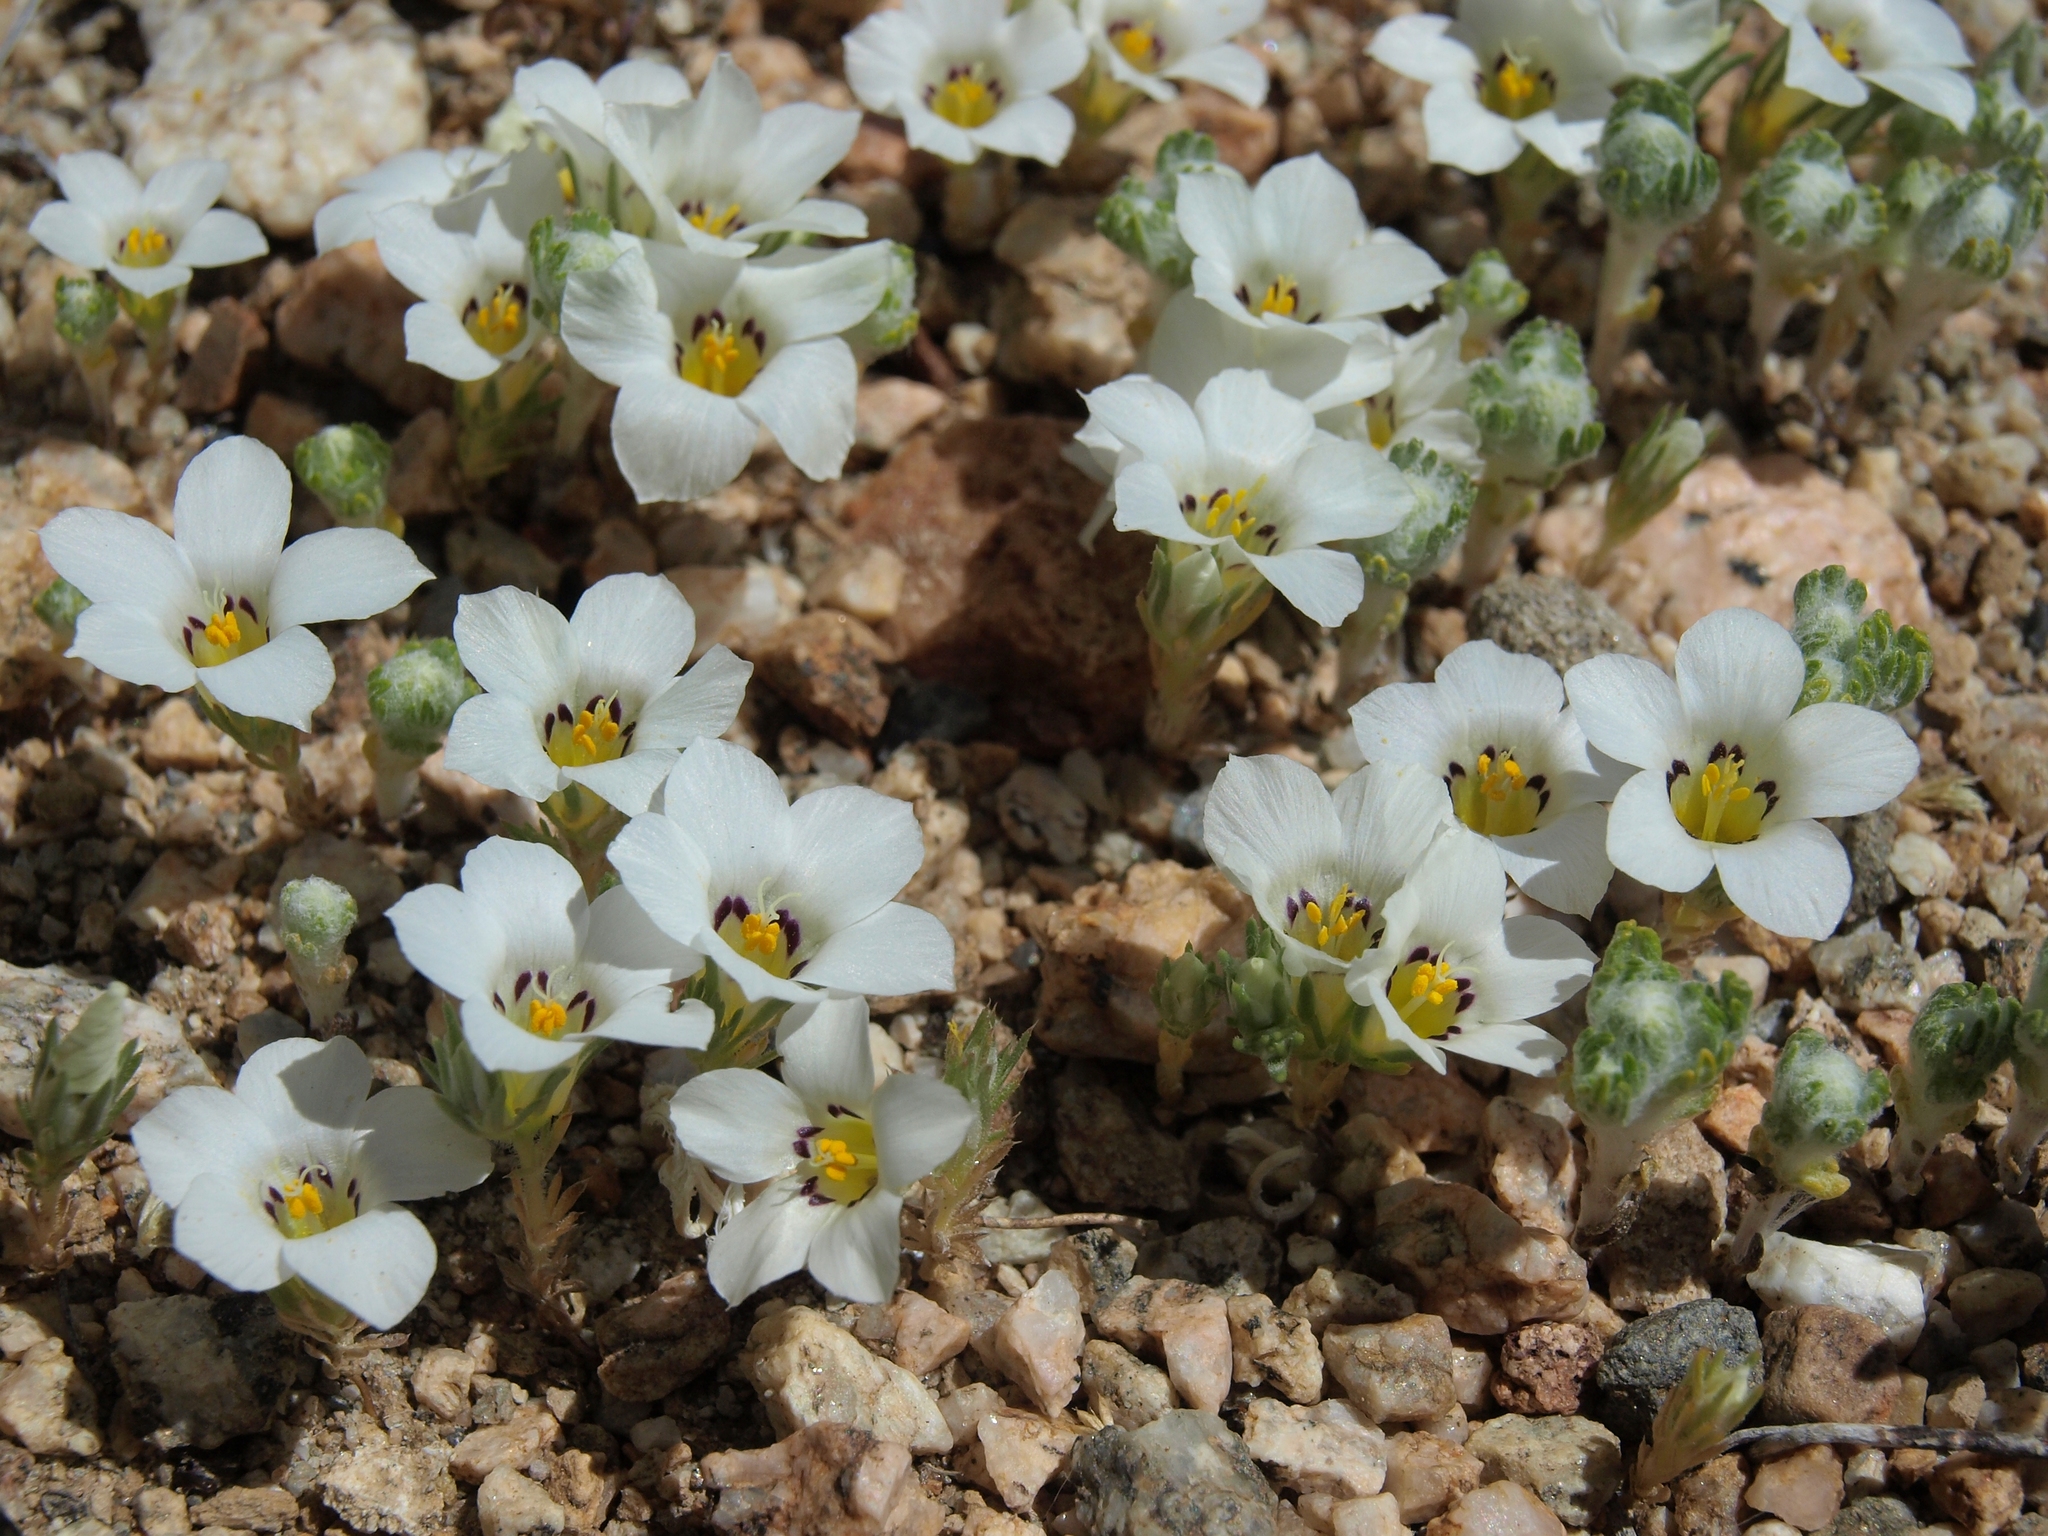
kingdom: Plantae
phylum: Tracheophyta
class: Magnoliopsida
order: Ericales
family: Polemoniaceae
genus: Linanthus
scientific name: Linanthus parryae
